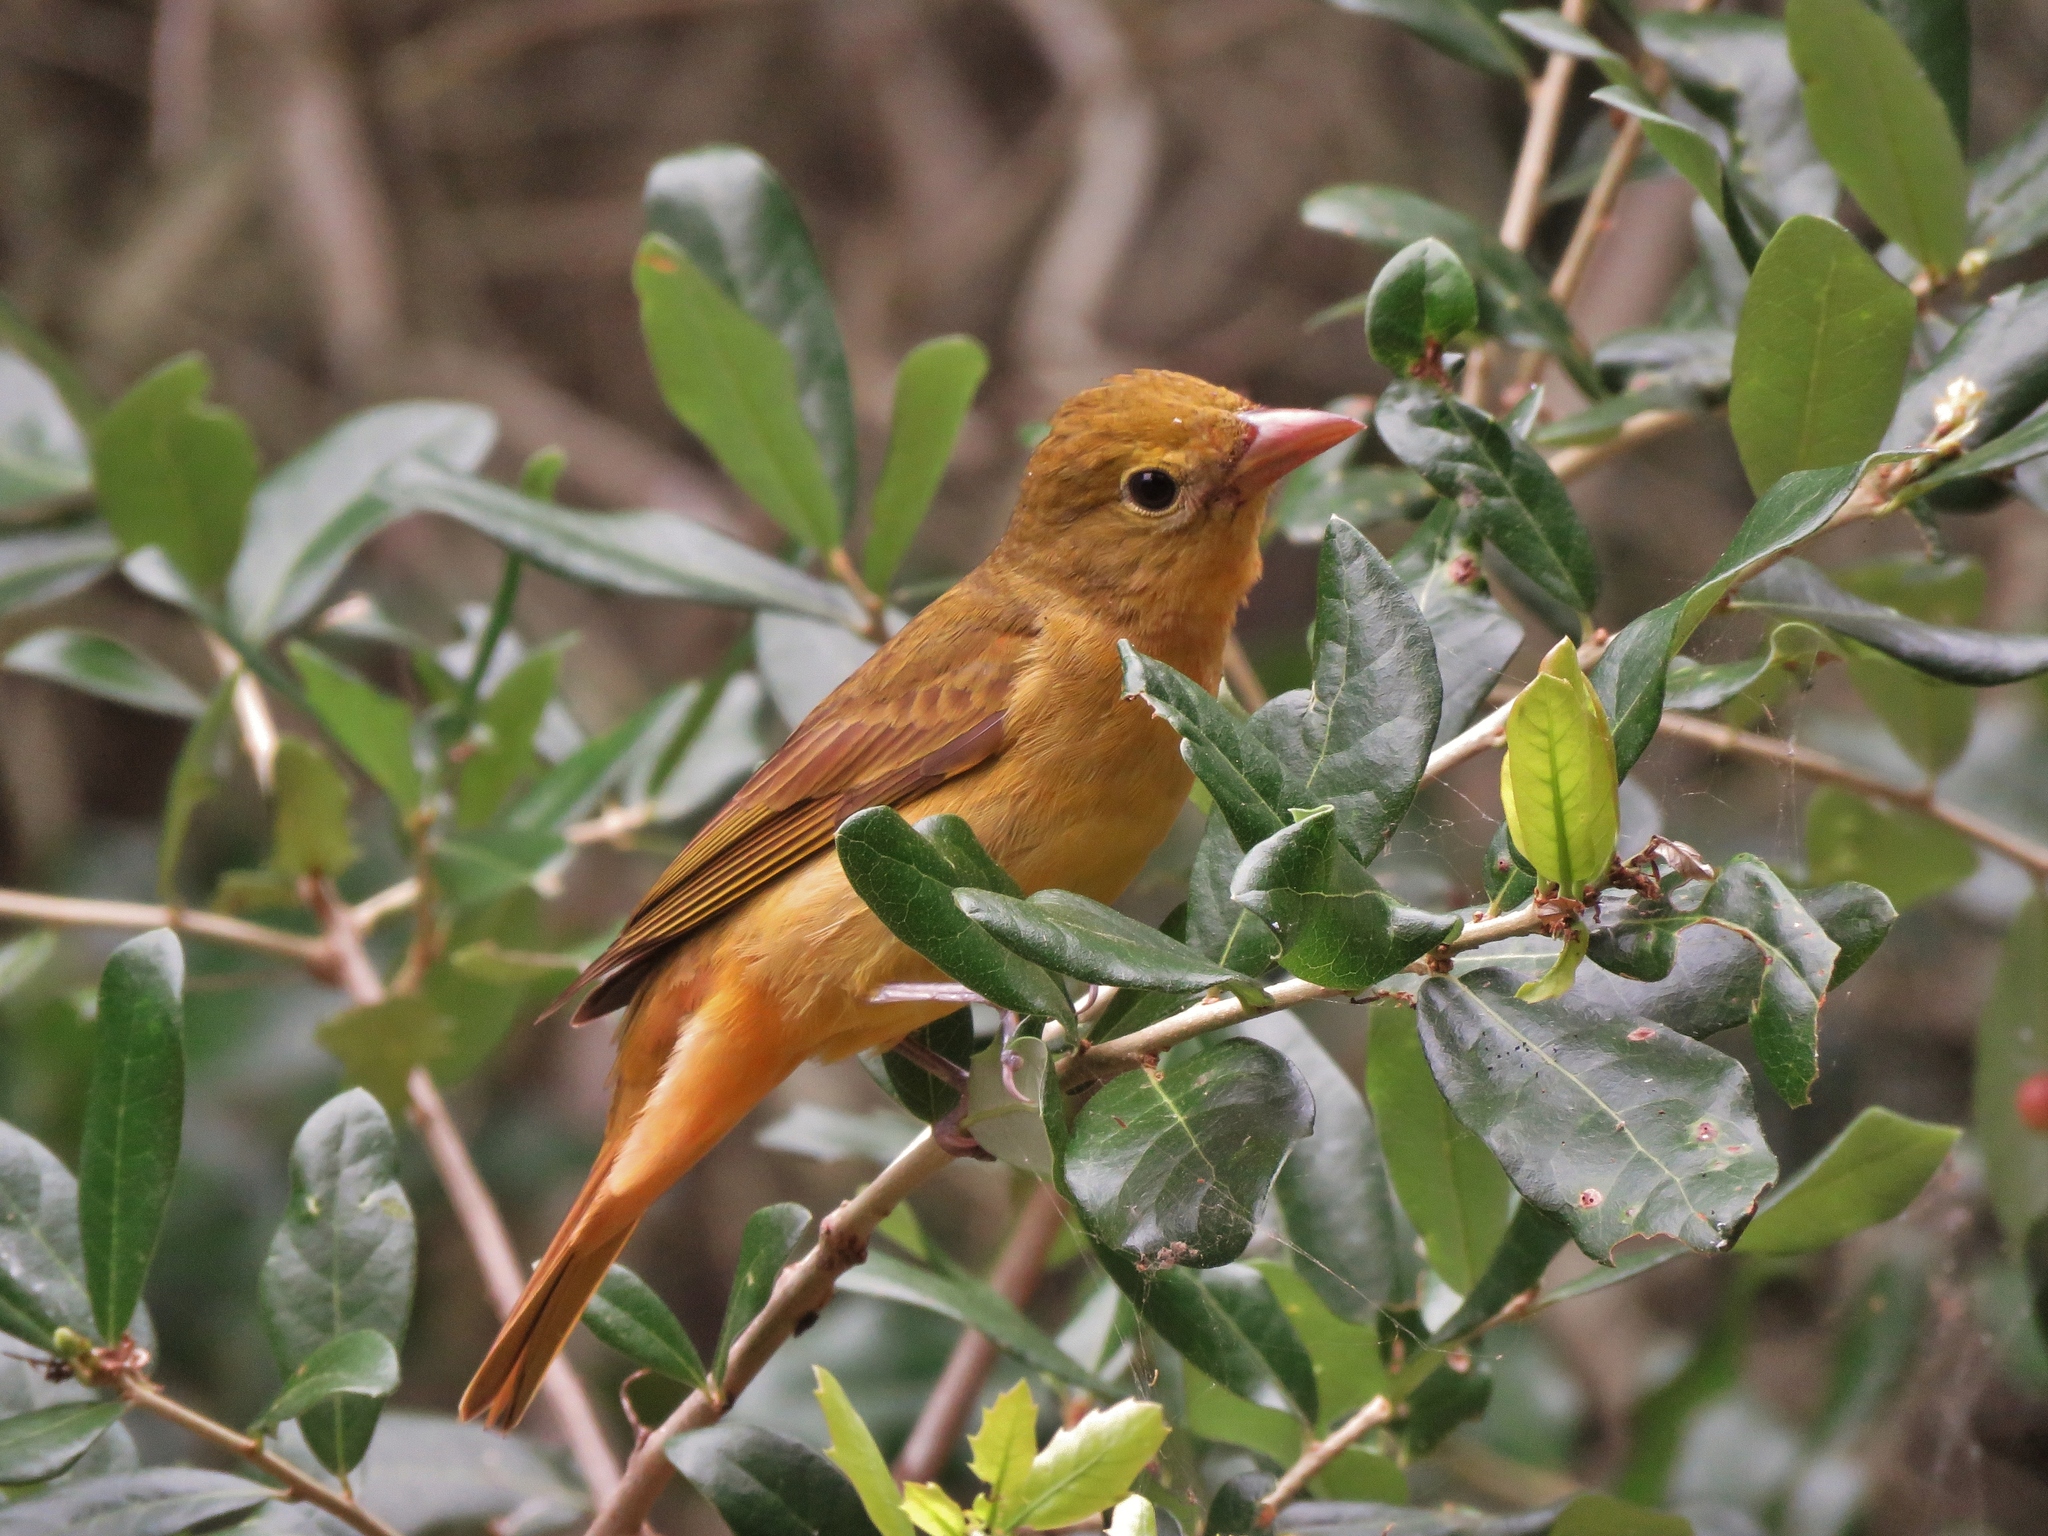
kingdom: Animalia
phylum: Chordata
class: Aves
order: Passeriformes
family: Cardinalidae
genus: Piranga
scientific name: Piranga rubra
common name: Summer tanager
